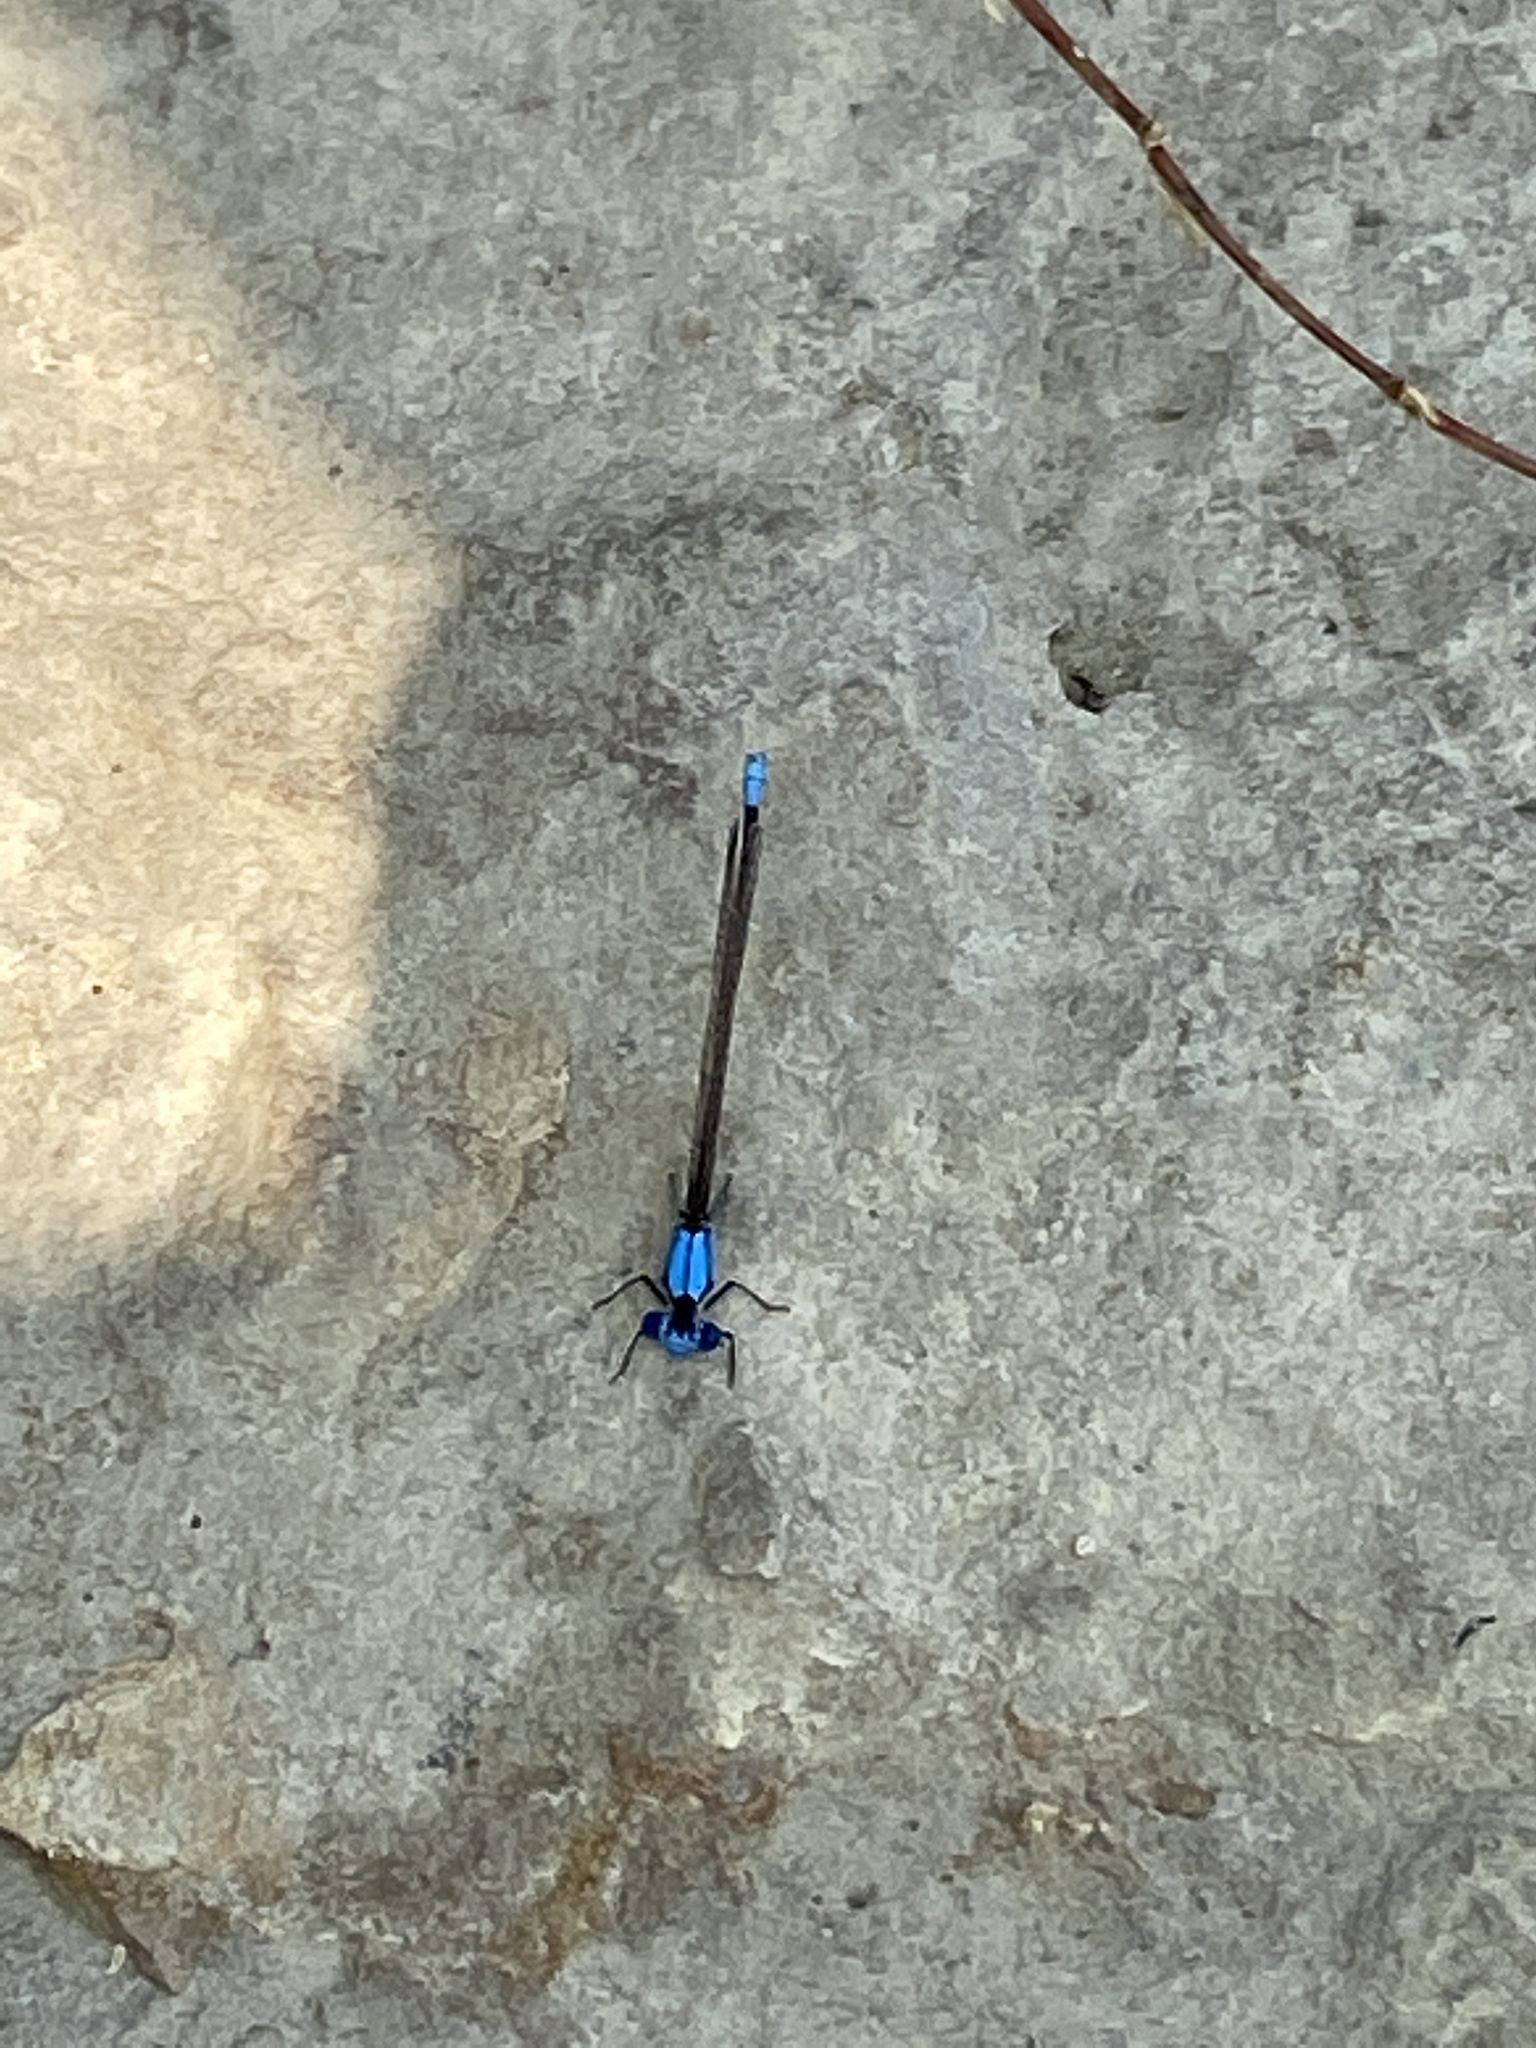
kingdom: Animalia
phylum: Arthropoda
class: Insecta
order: Odonata
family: Coenagrionidae
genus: Argia
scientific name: Argia apicalis
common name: Blue-fronted dancer
